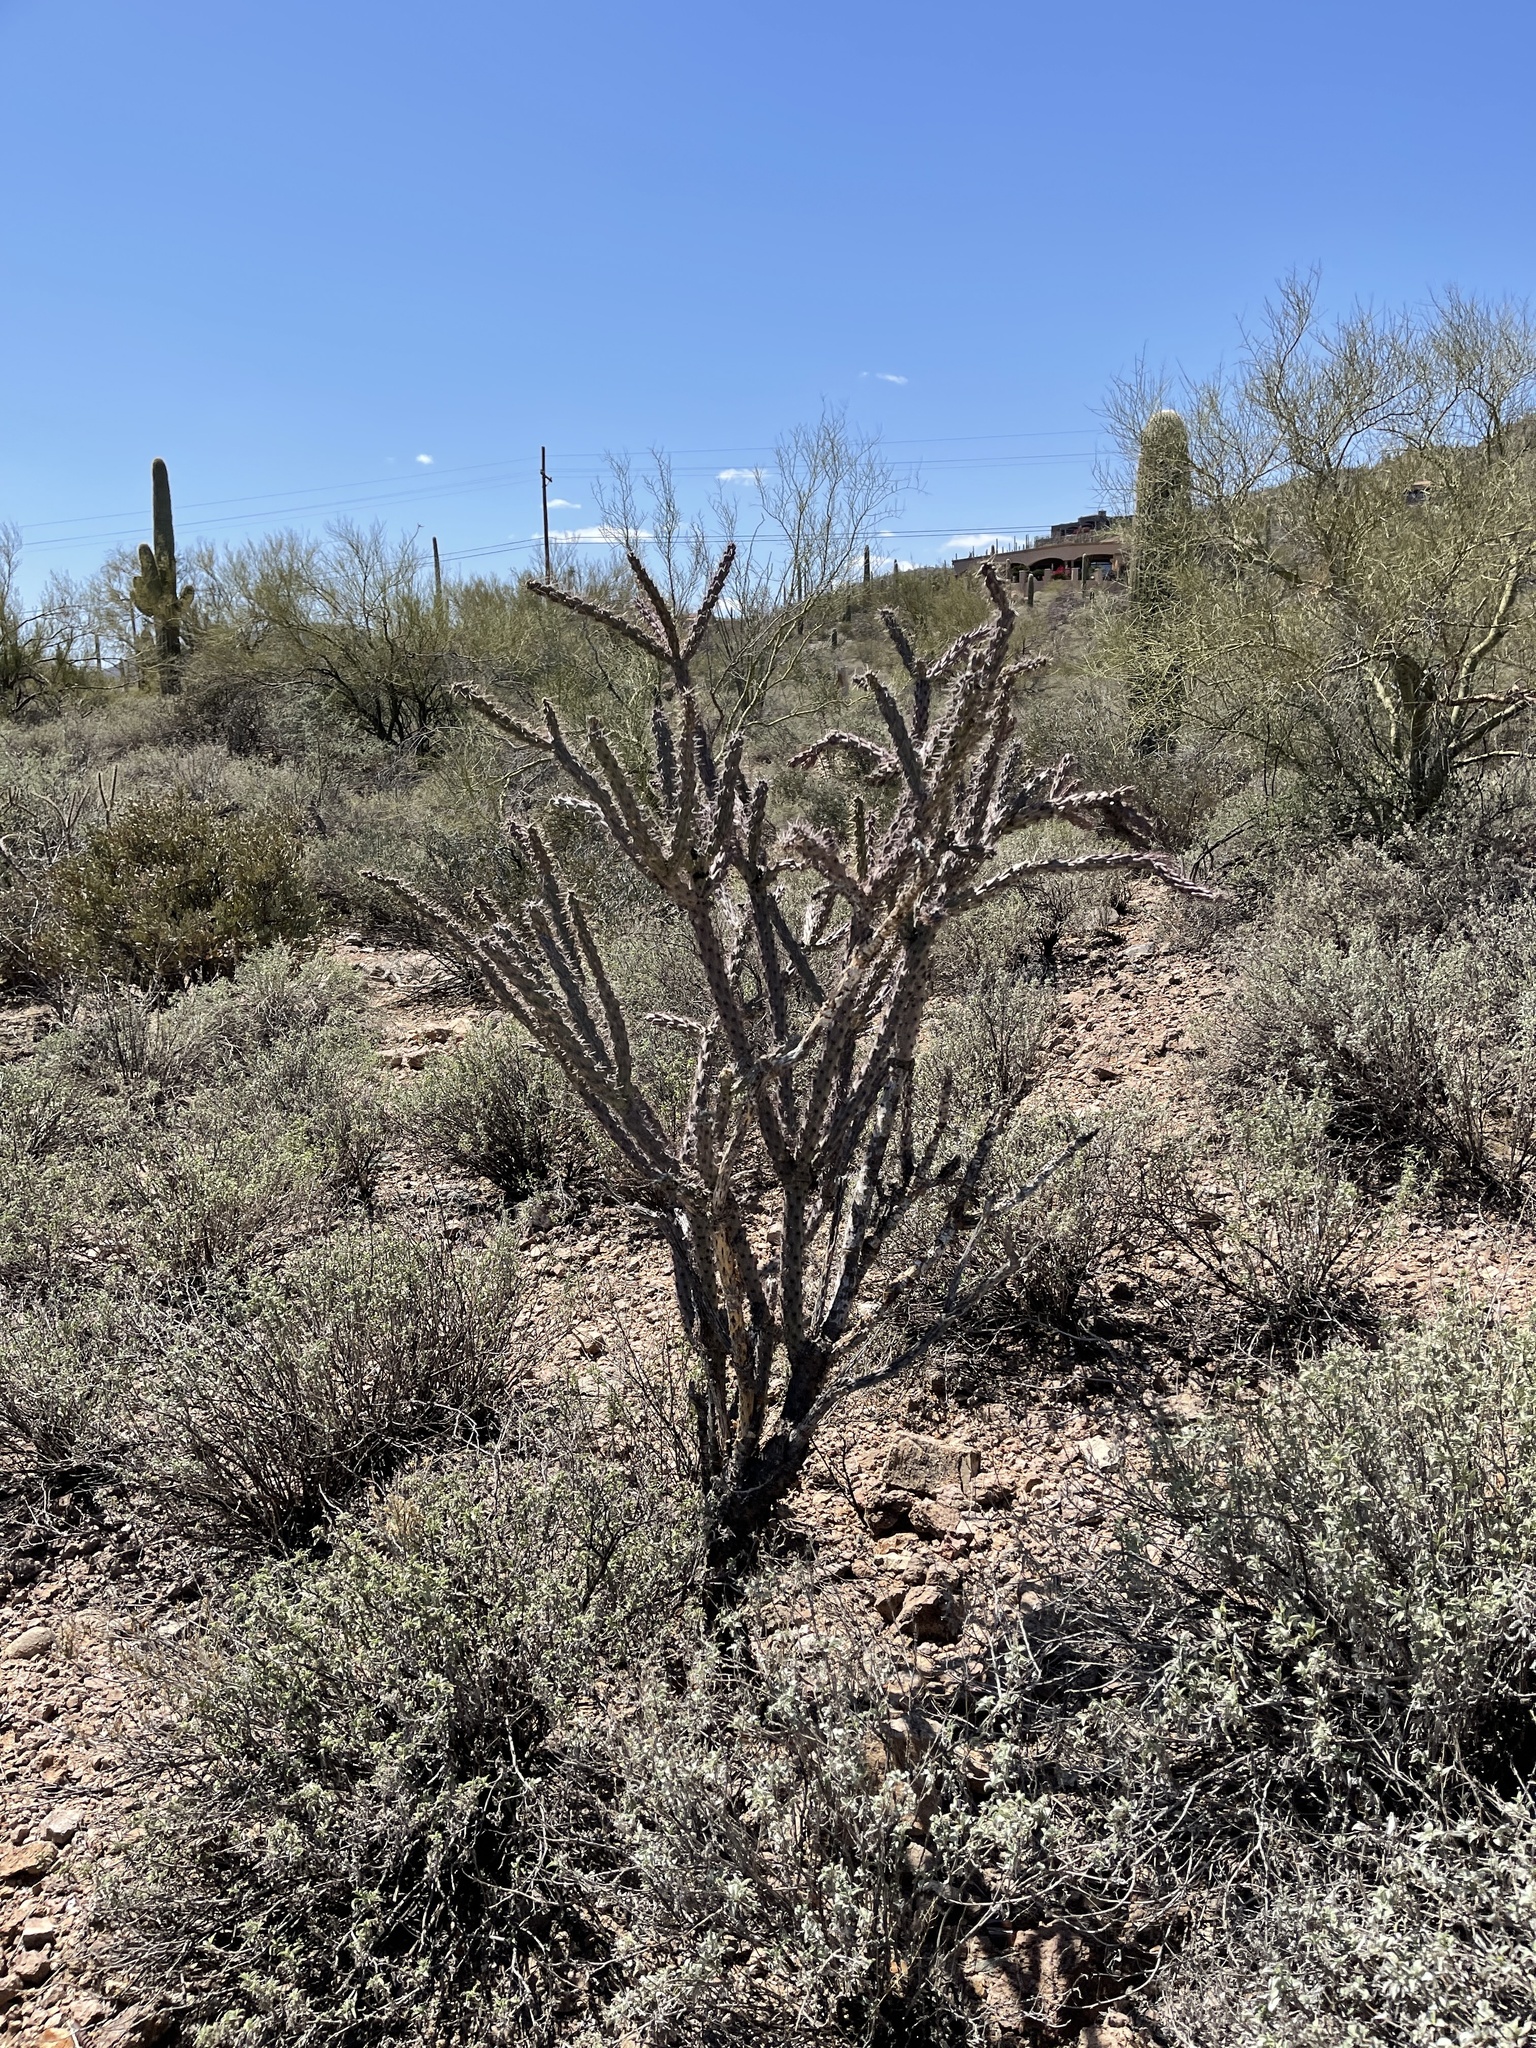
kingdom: Plantae
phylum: Tracheophyta
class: Magnoliopsida
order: Caryophyllales
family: Cactaceae
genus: Cylindropuntia
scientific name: Cylindropuntia acanthocarpa
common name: Buckhorn cholla
